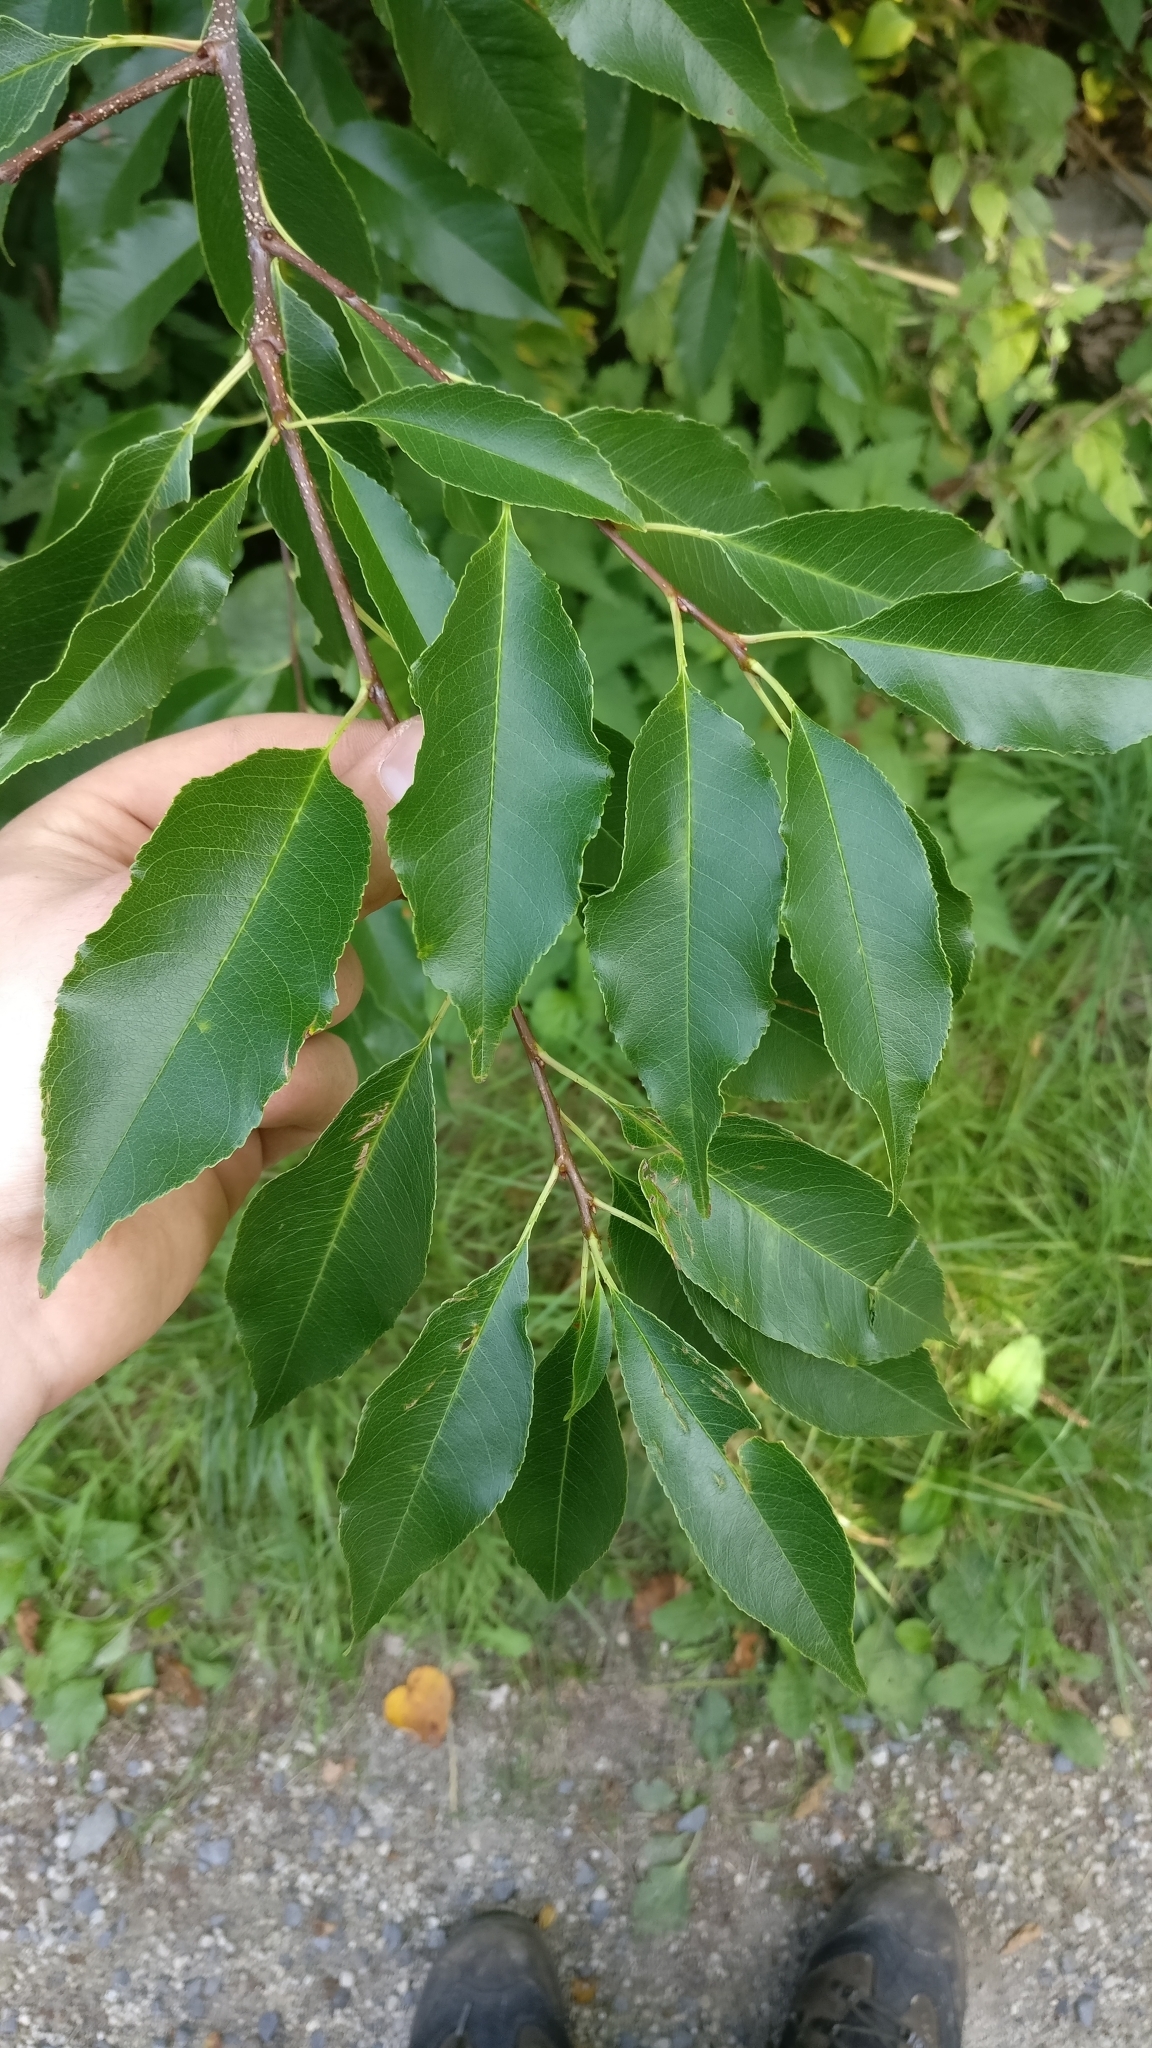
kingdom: Plantae
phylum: Tracheophyta
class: Magnoliopsida
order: Rosales
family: Rosaceae
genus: Prunus
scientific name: Prunus serotina
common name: Black cherry
